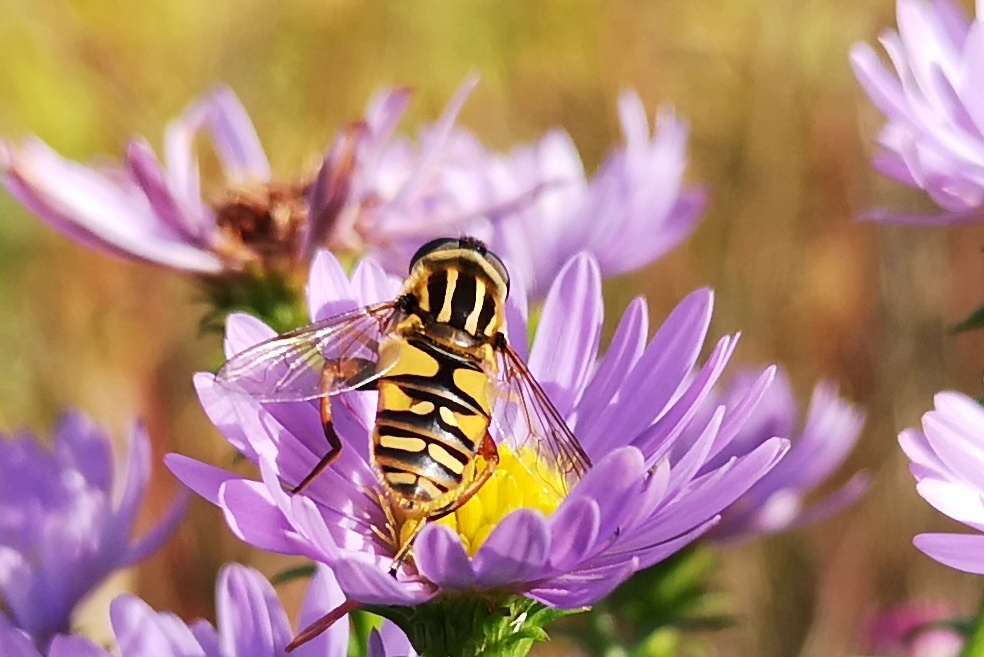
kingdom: Animalia
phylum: Arthropoda
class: Insecta
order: Diptera
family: Syrphidae
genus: Helophilus
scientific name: Helophilus pendulus
